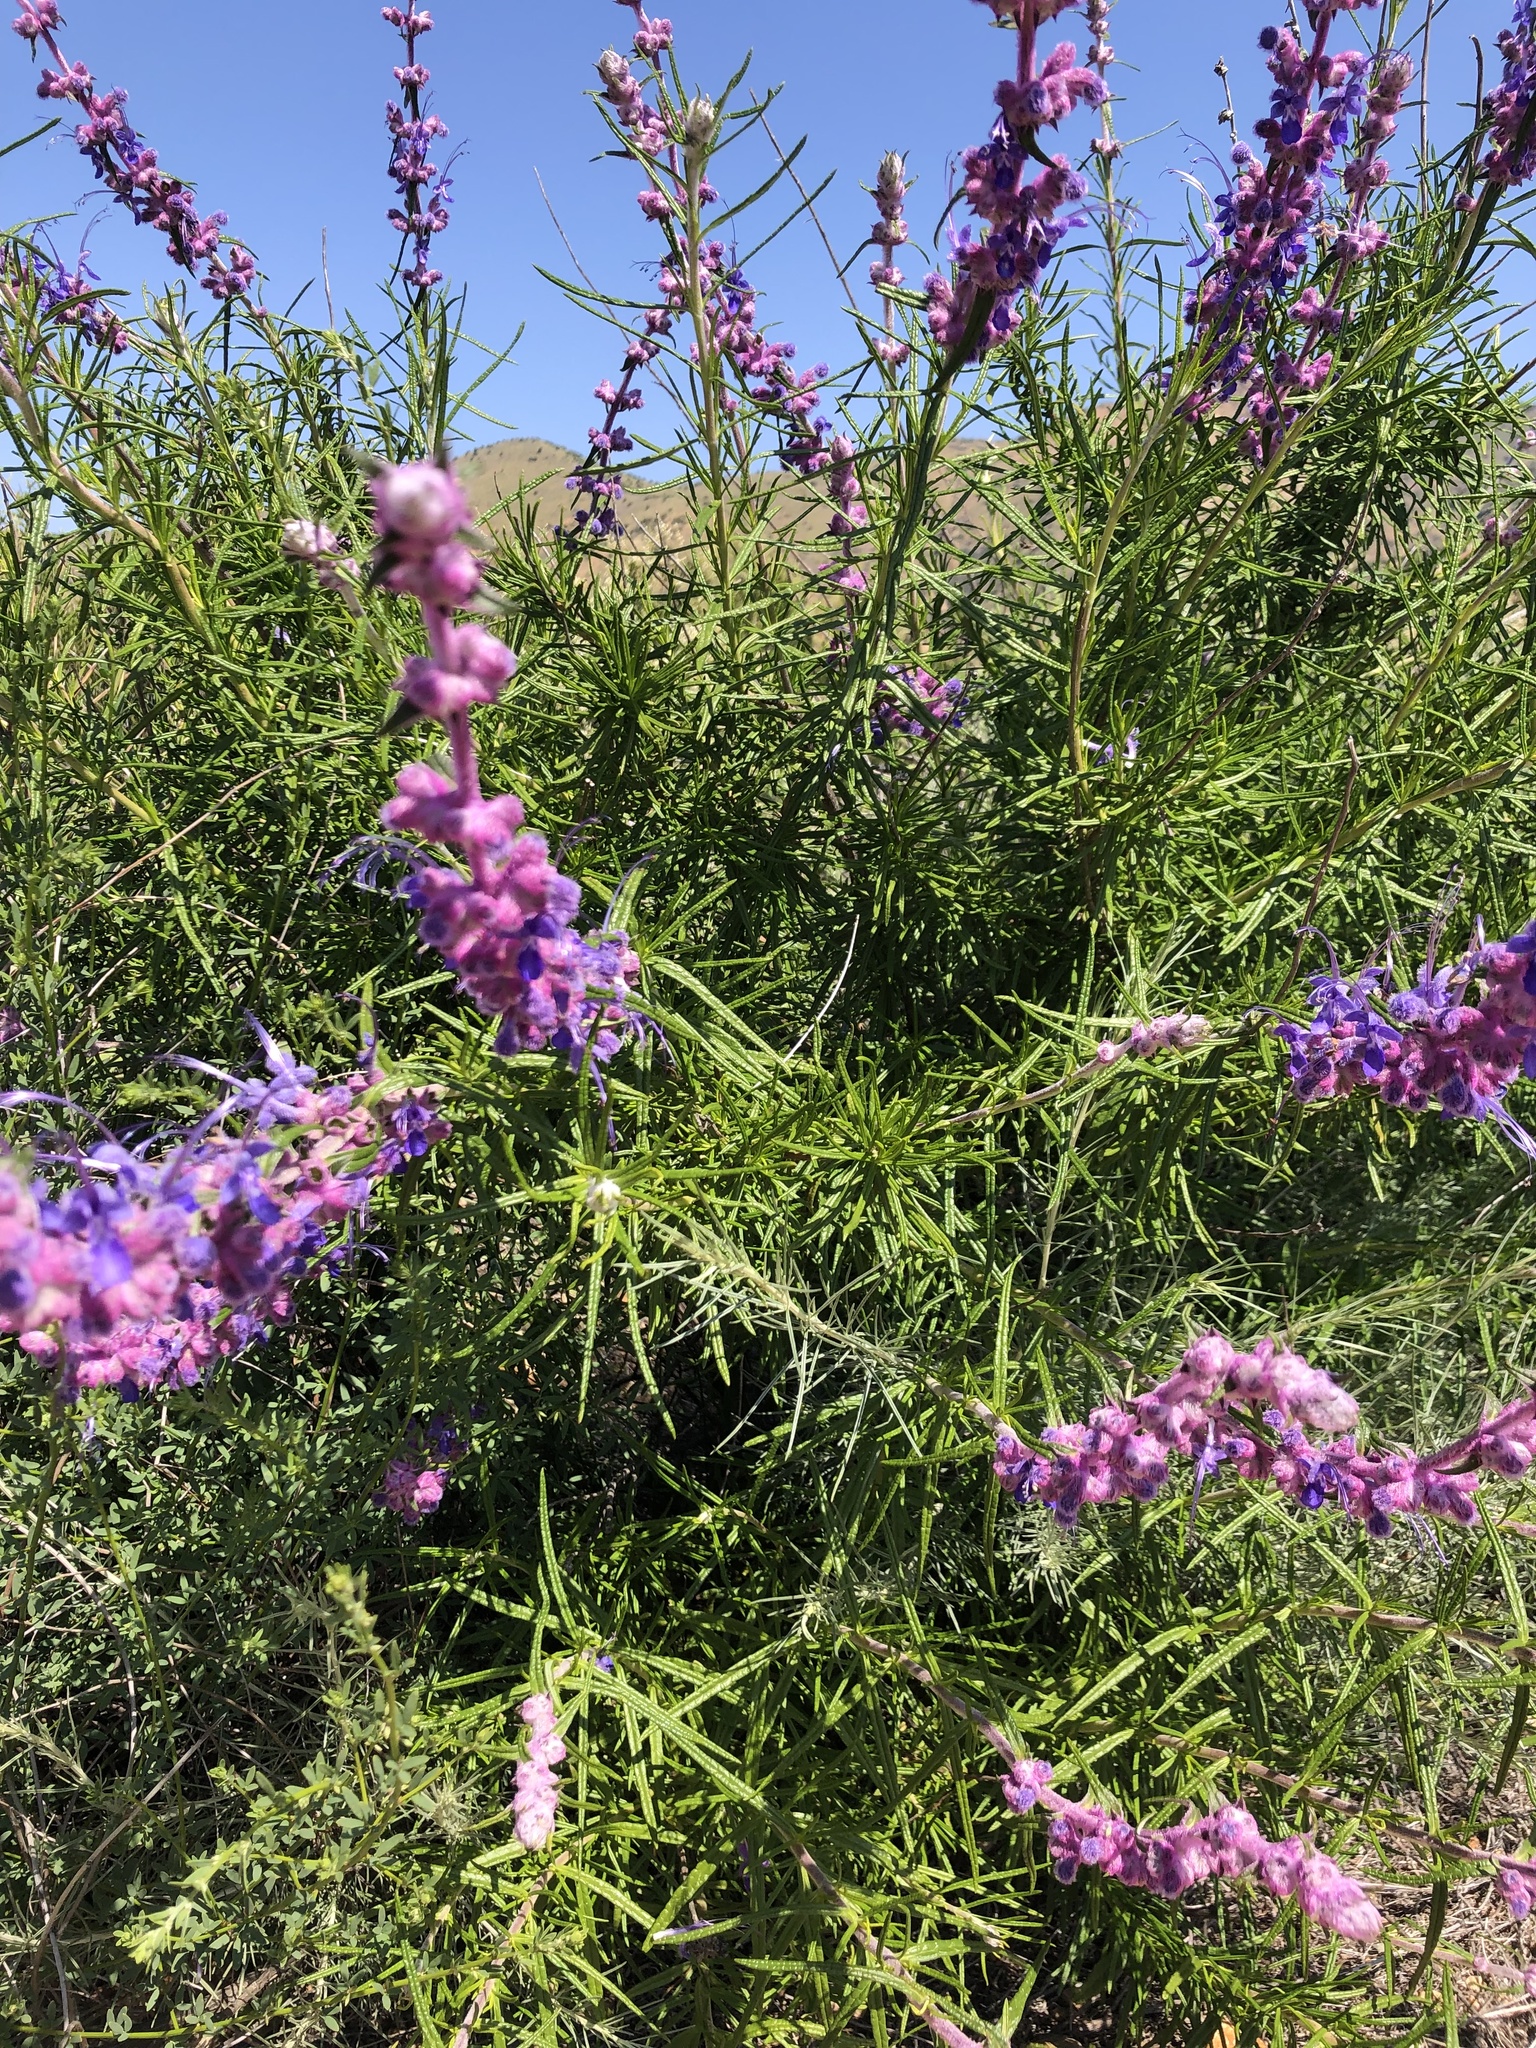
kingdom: Plantae
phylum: Tracheophyta
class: Magnoliopsida
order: Lamiales
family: Lamiaceae
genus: Trichostema
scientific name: Trichostema lanatum
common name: Woolly bluecurls
